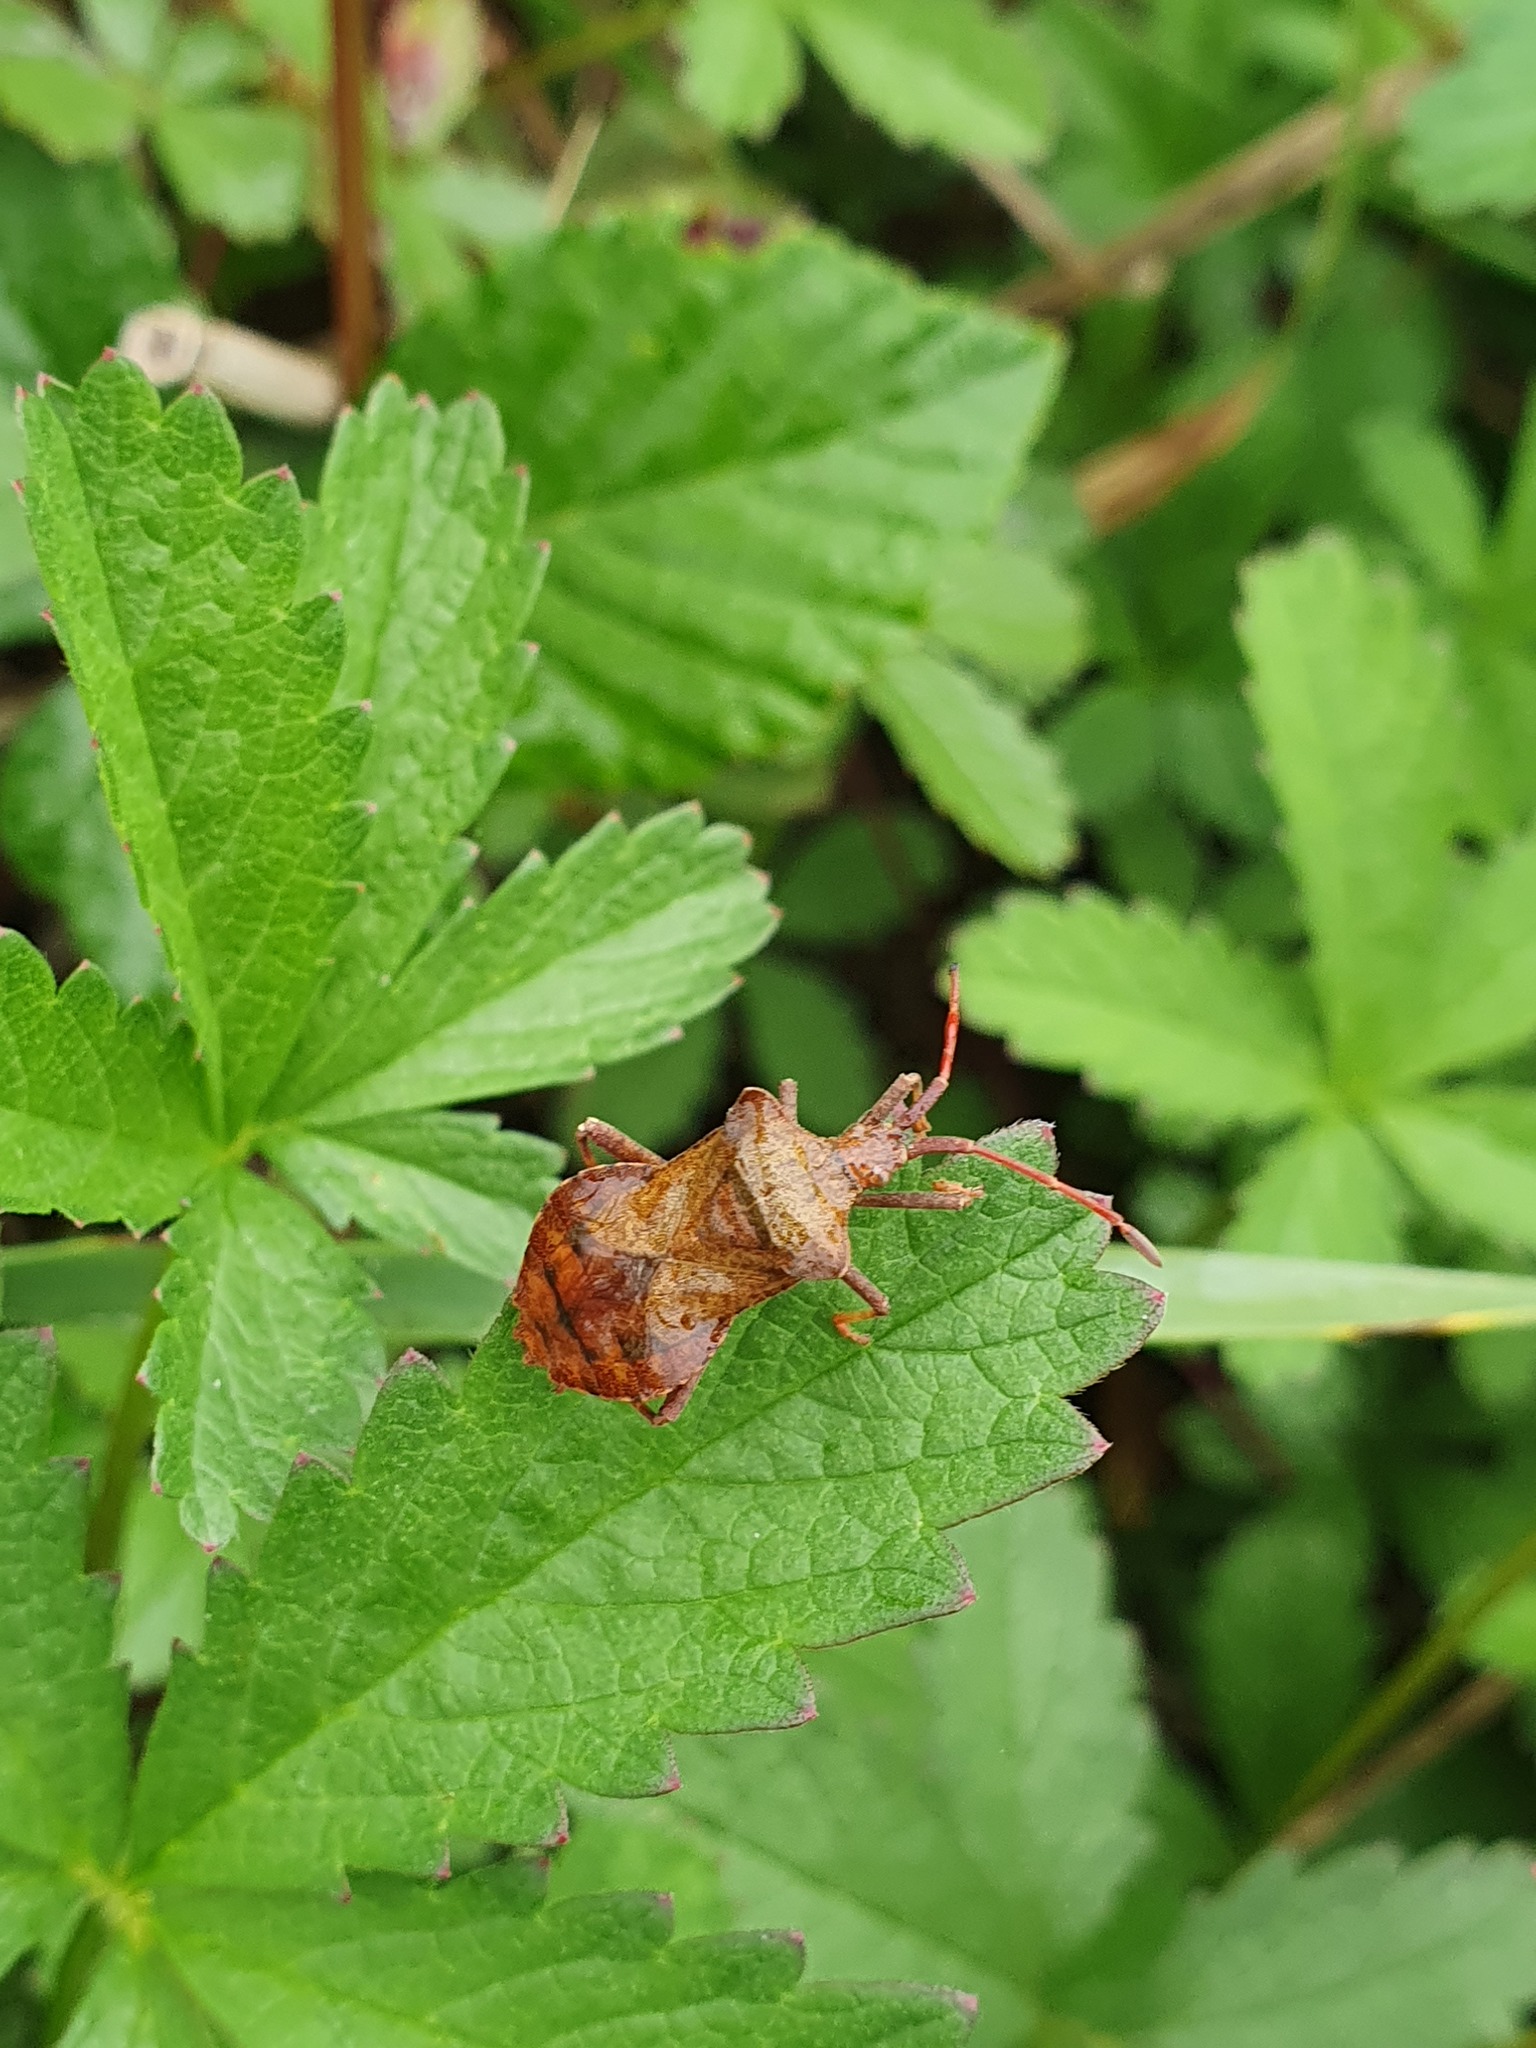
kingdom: Animalia
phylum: Arthropoda
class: Insecta
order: Hemiptera
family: Coreidae
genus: Coreus
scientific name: Coreus marginatus
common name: Dock bug
